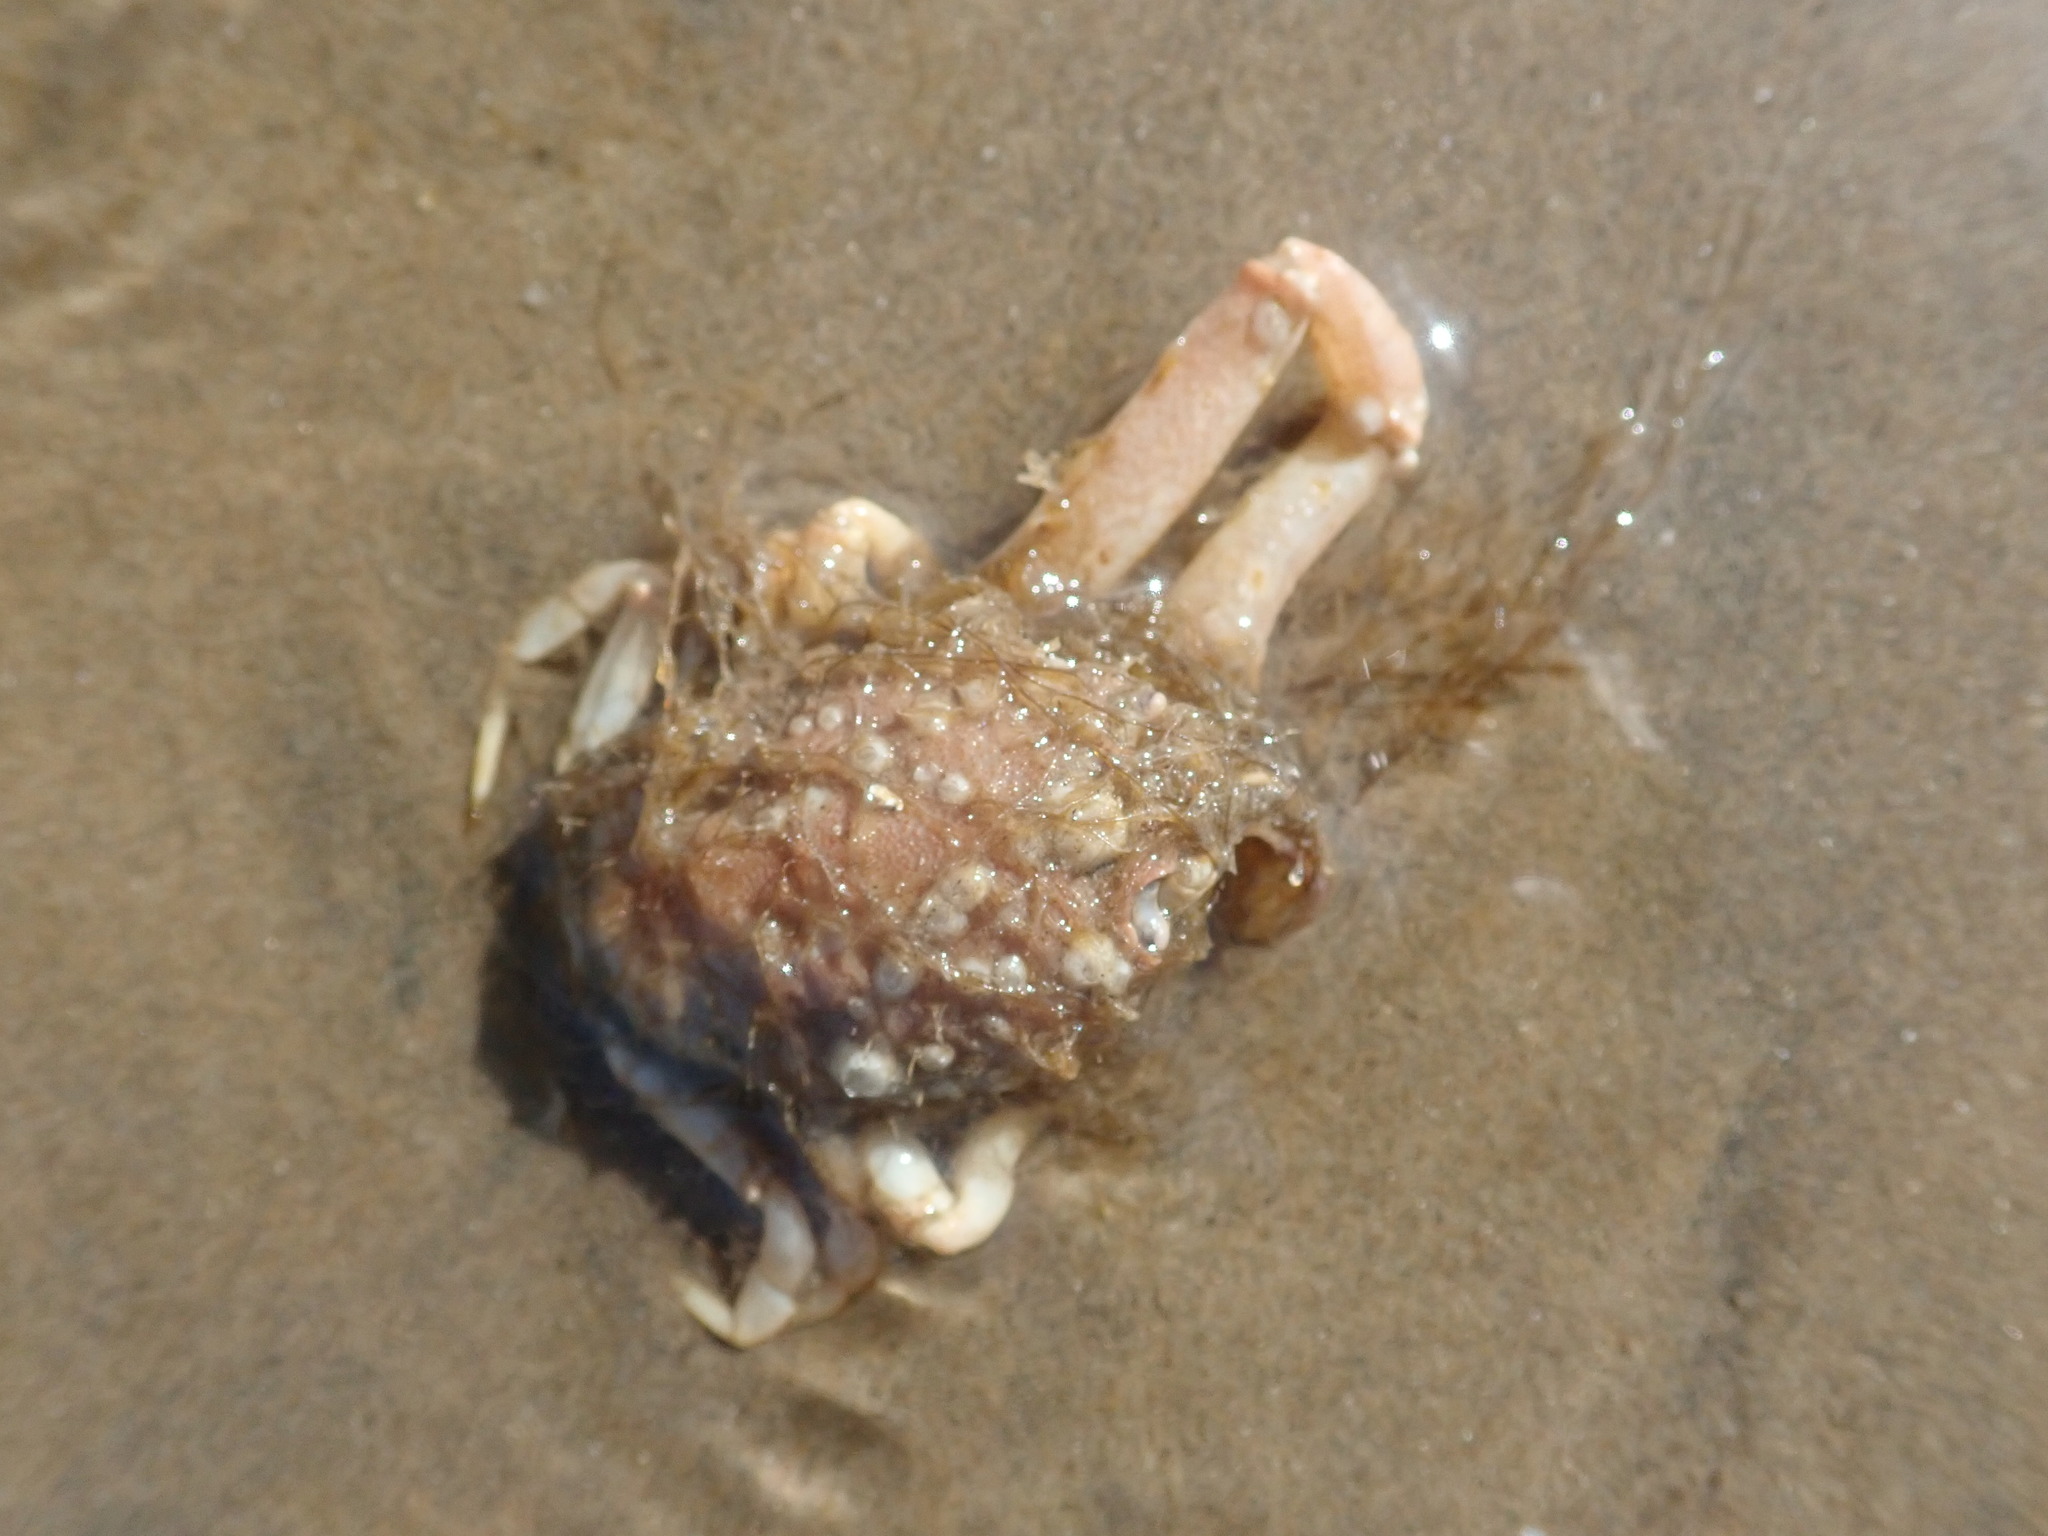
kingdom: Animalia
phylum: Arthropoda
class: Malacostraca
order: Decapoda
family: Corystidae
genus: Corystes
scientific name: Corystes cassivelaunus
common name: Masked crab
